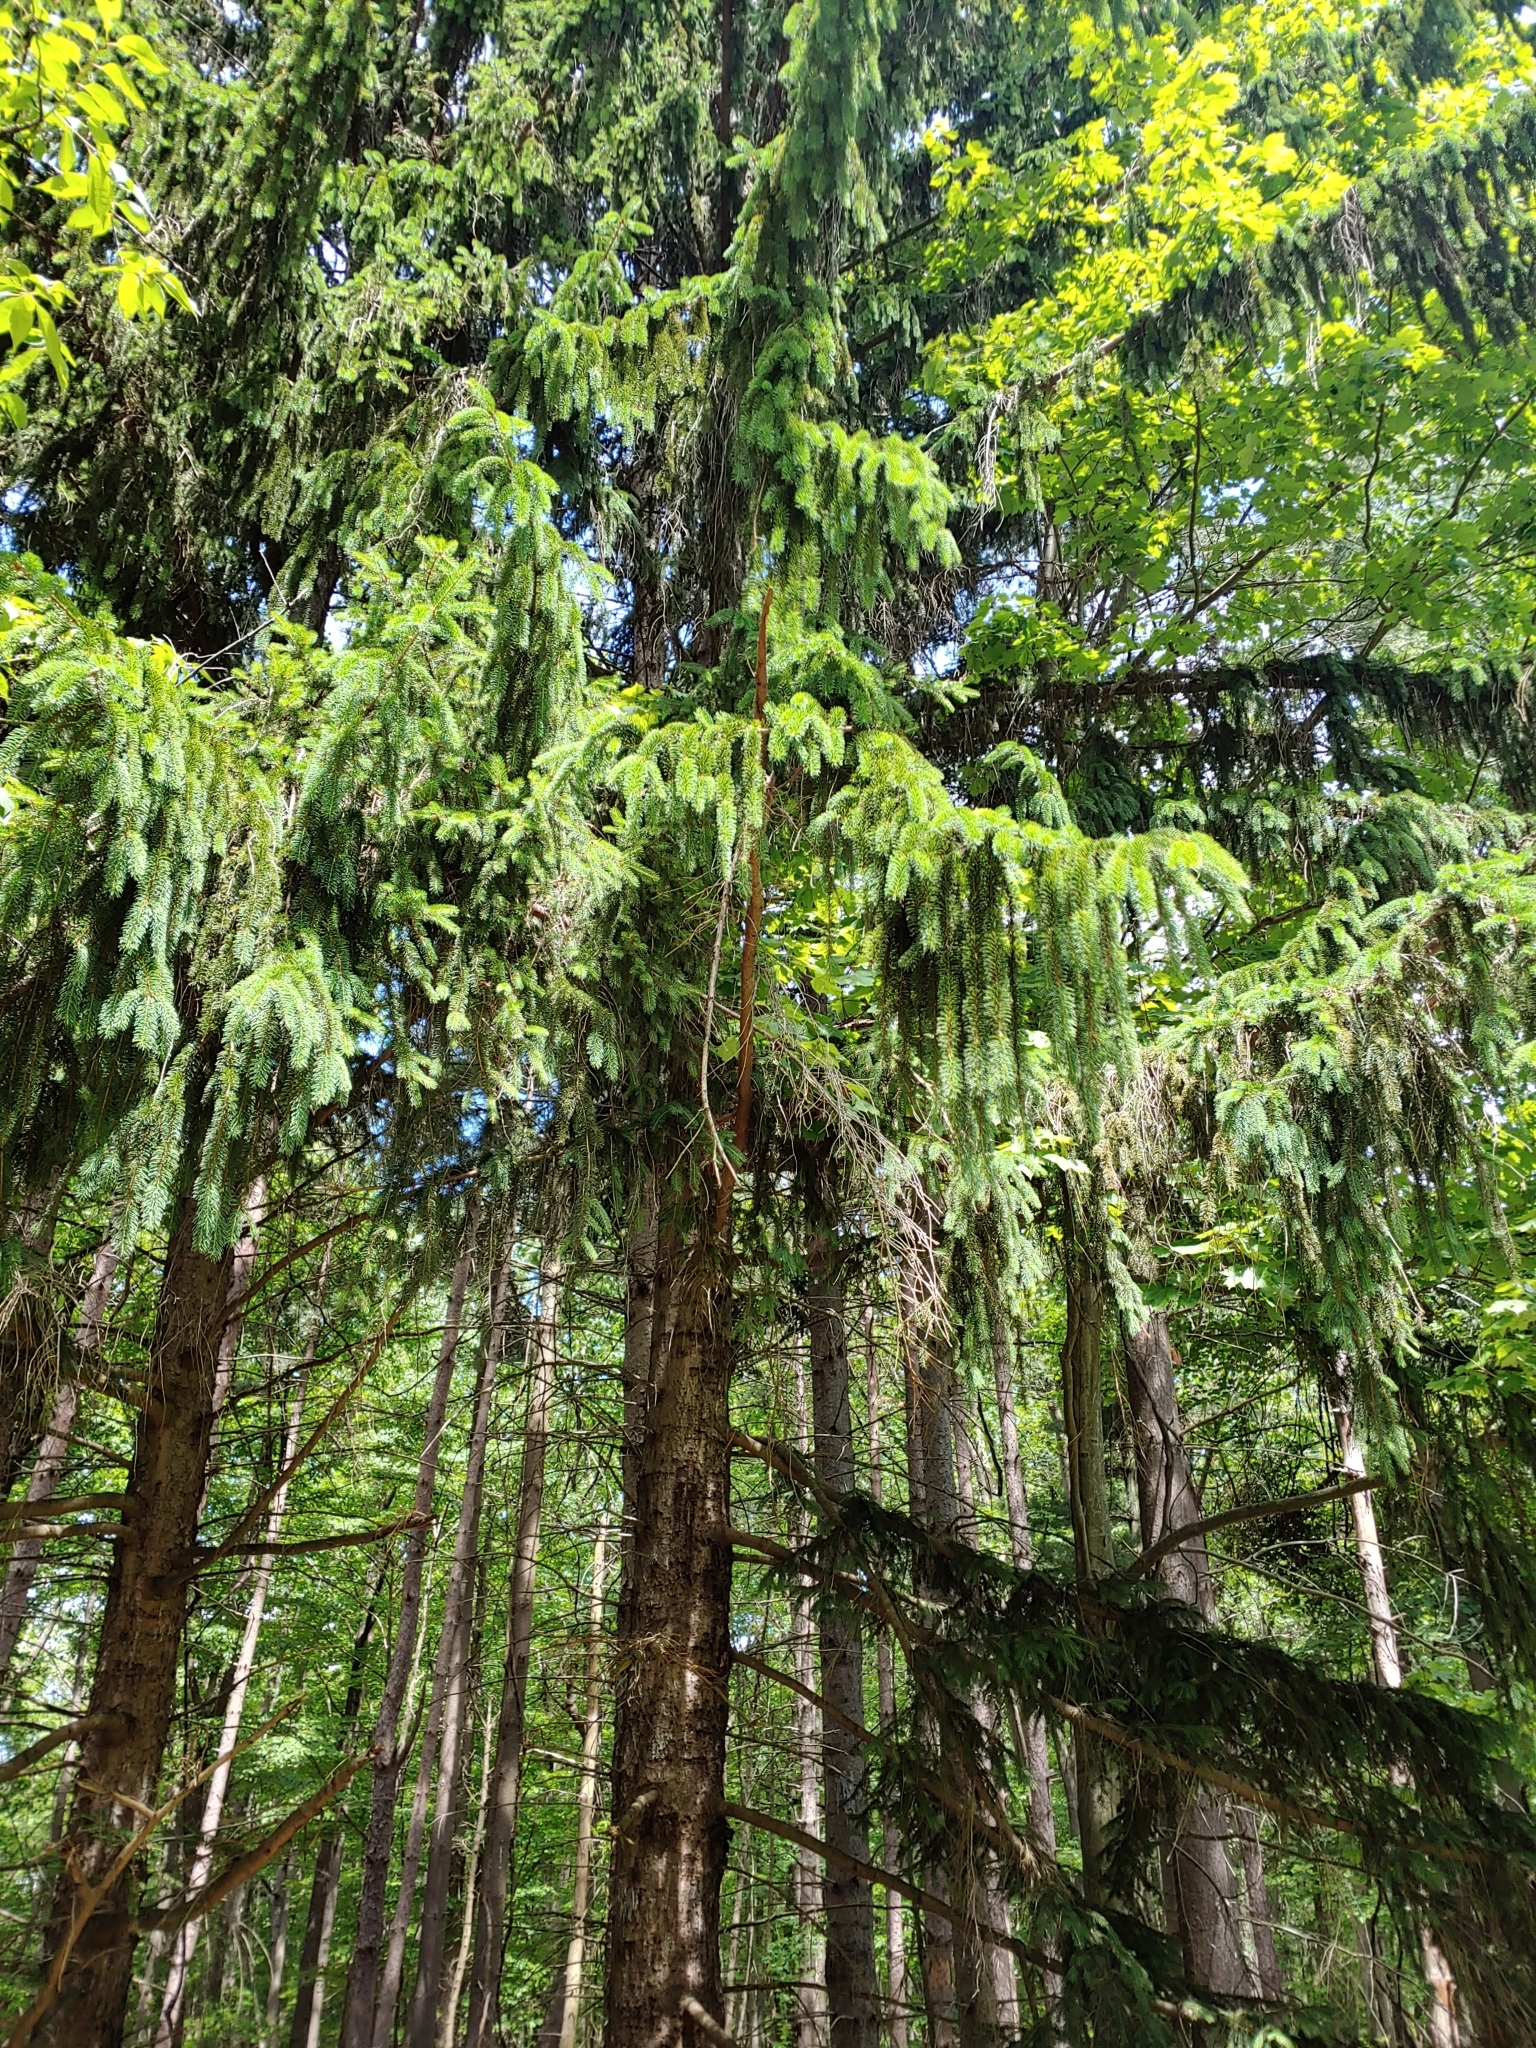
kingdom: Plantae
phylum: Tracheophyta
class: Pinopsida
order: Pinales
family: Pinaceae
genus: Picea
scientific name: Picea abies
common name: Norway spruce
